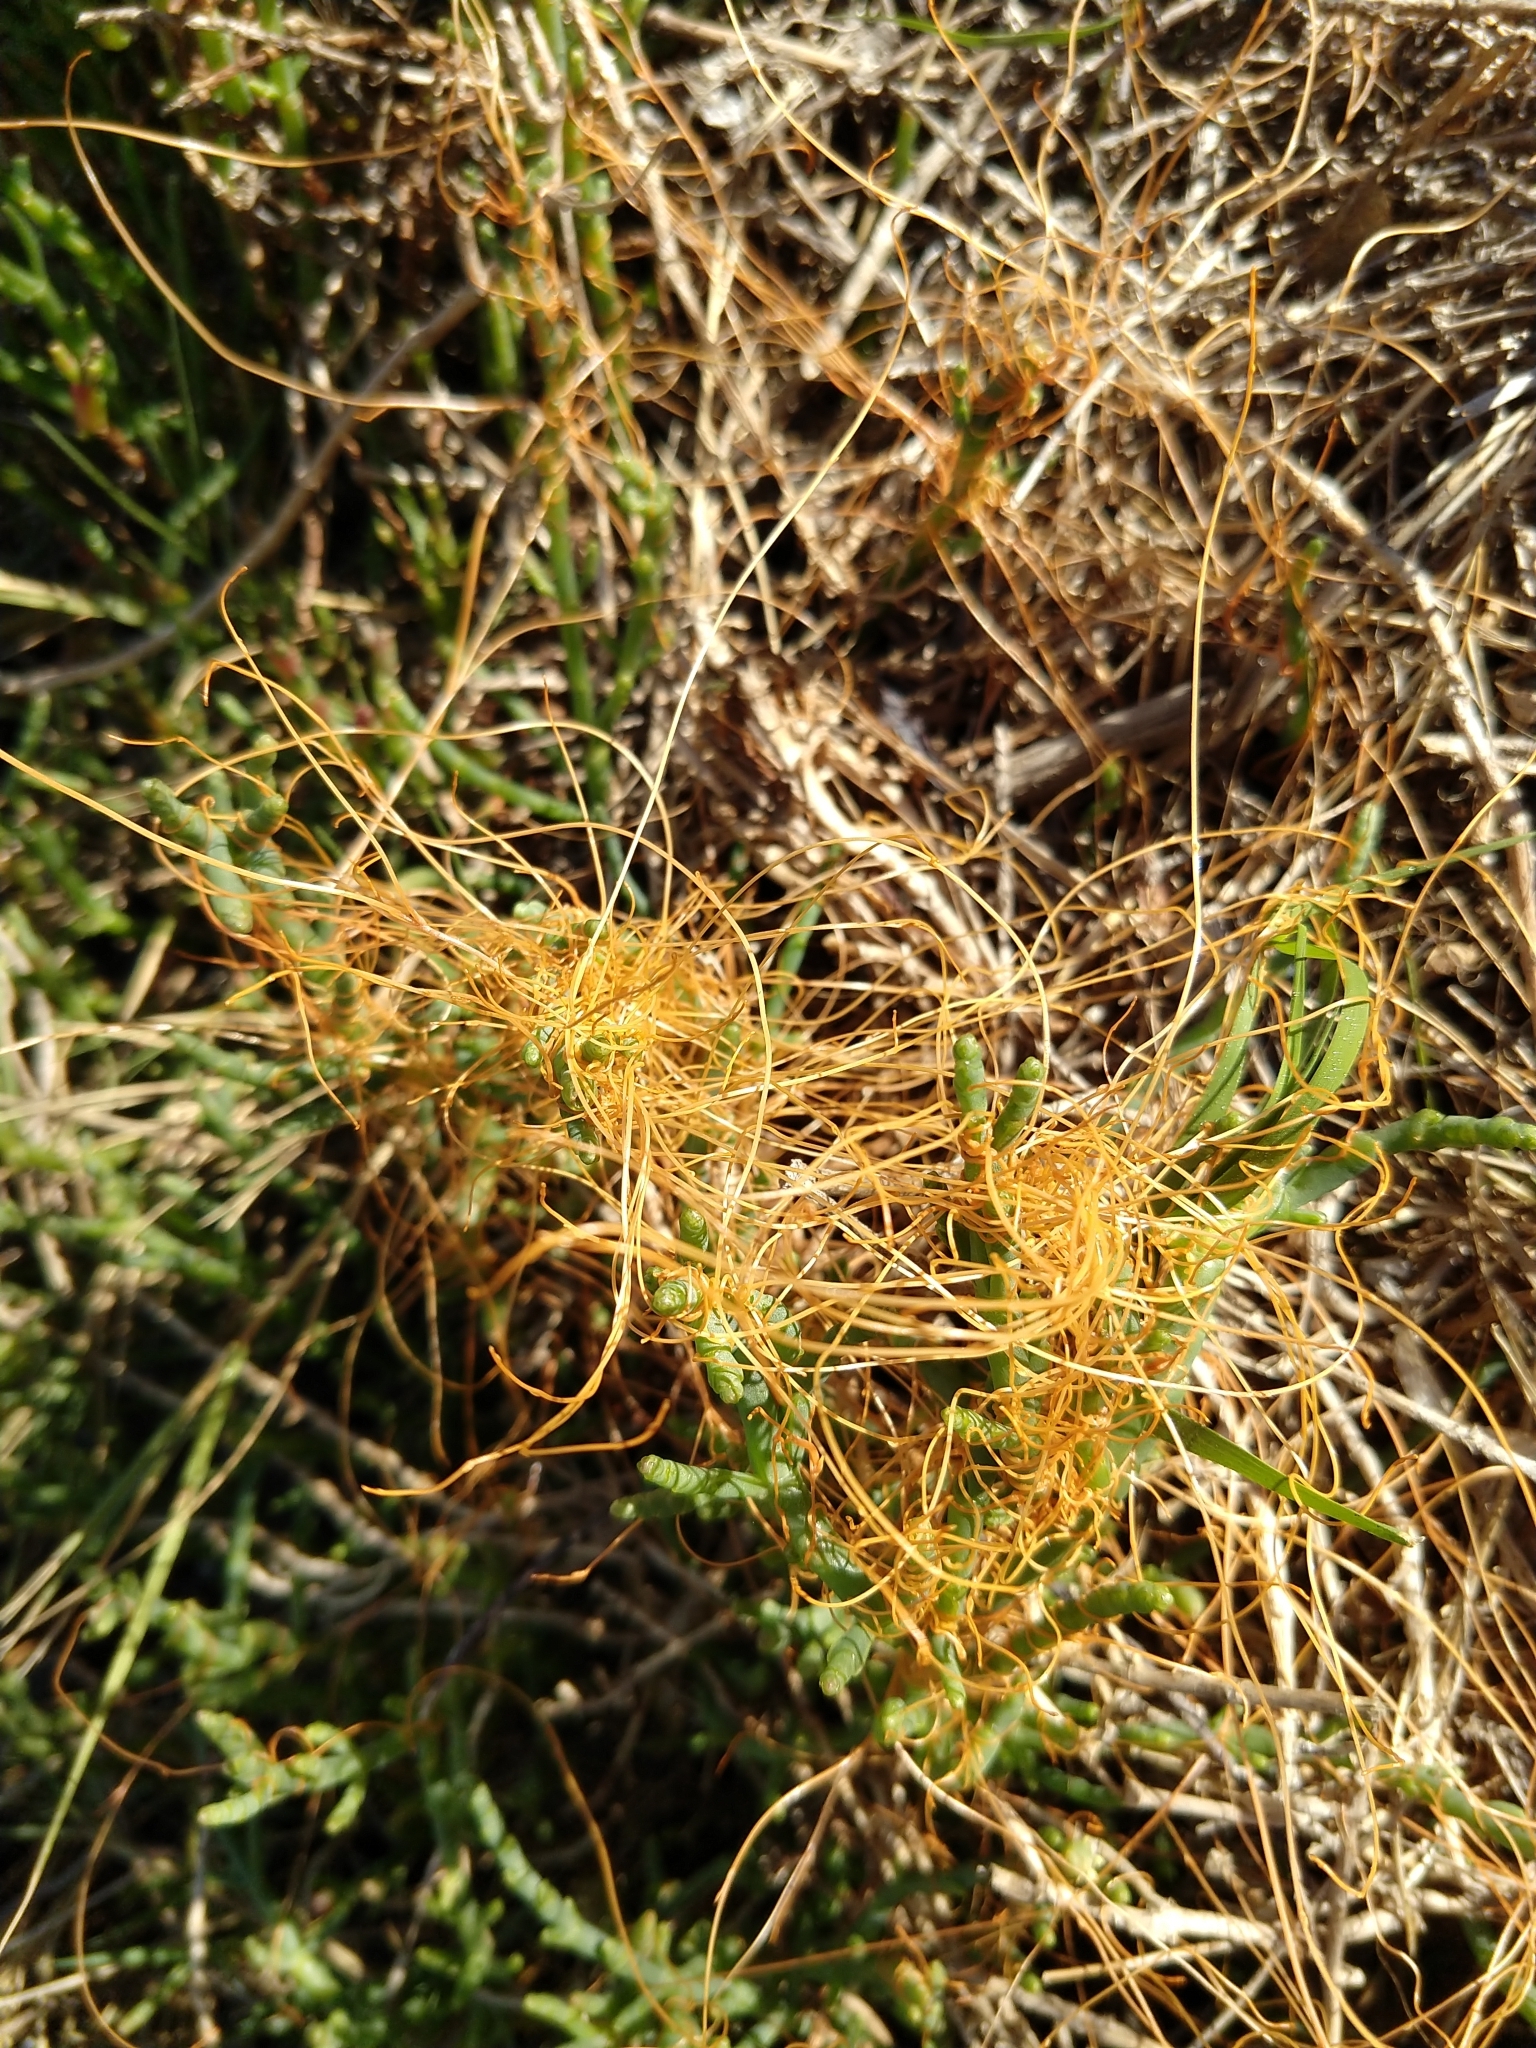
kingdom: Plantae
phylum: Tracheophyta
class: Magnoliopsida
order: Solanales
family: Convolvulaceae
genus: Cuscuta
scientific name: Cuscuta pacifica
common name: Large saltmarsh dodder
